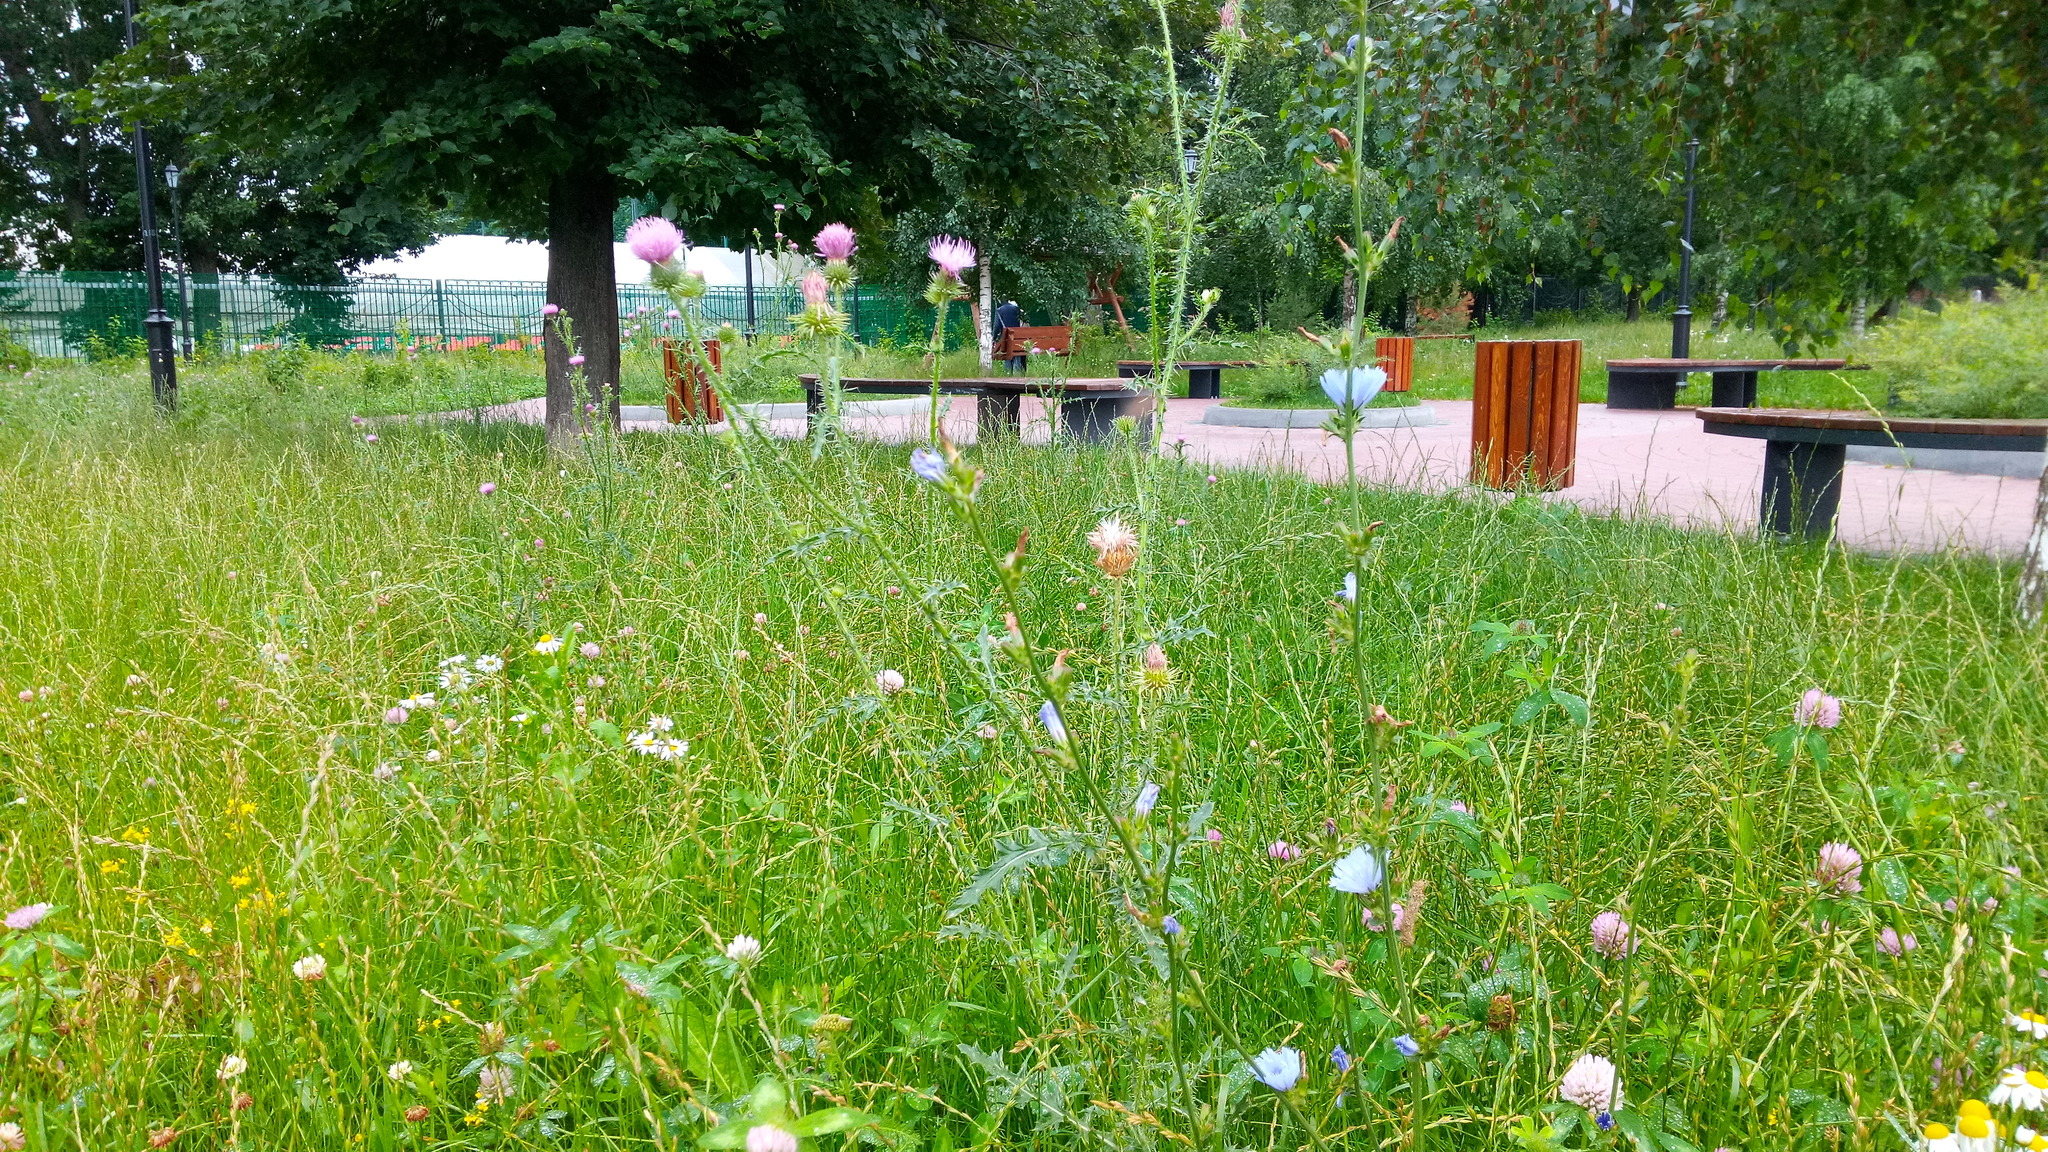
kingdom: Plantae
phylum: Tracheophyta
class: Magnoliopsida
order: Asterales
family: Asteraceae
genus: Cichorium
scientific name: Cichorium intybus
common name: Chicory
